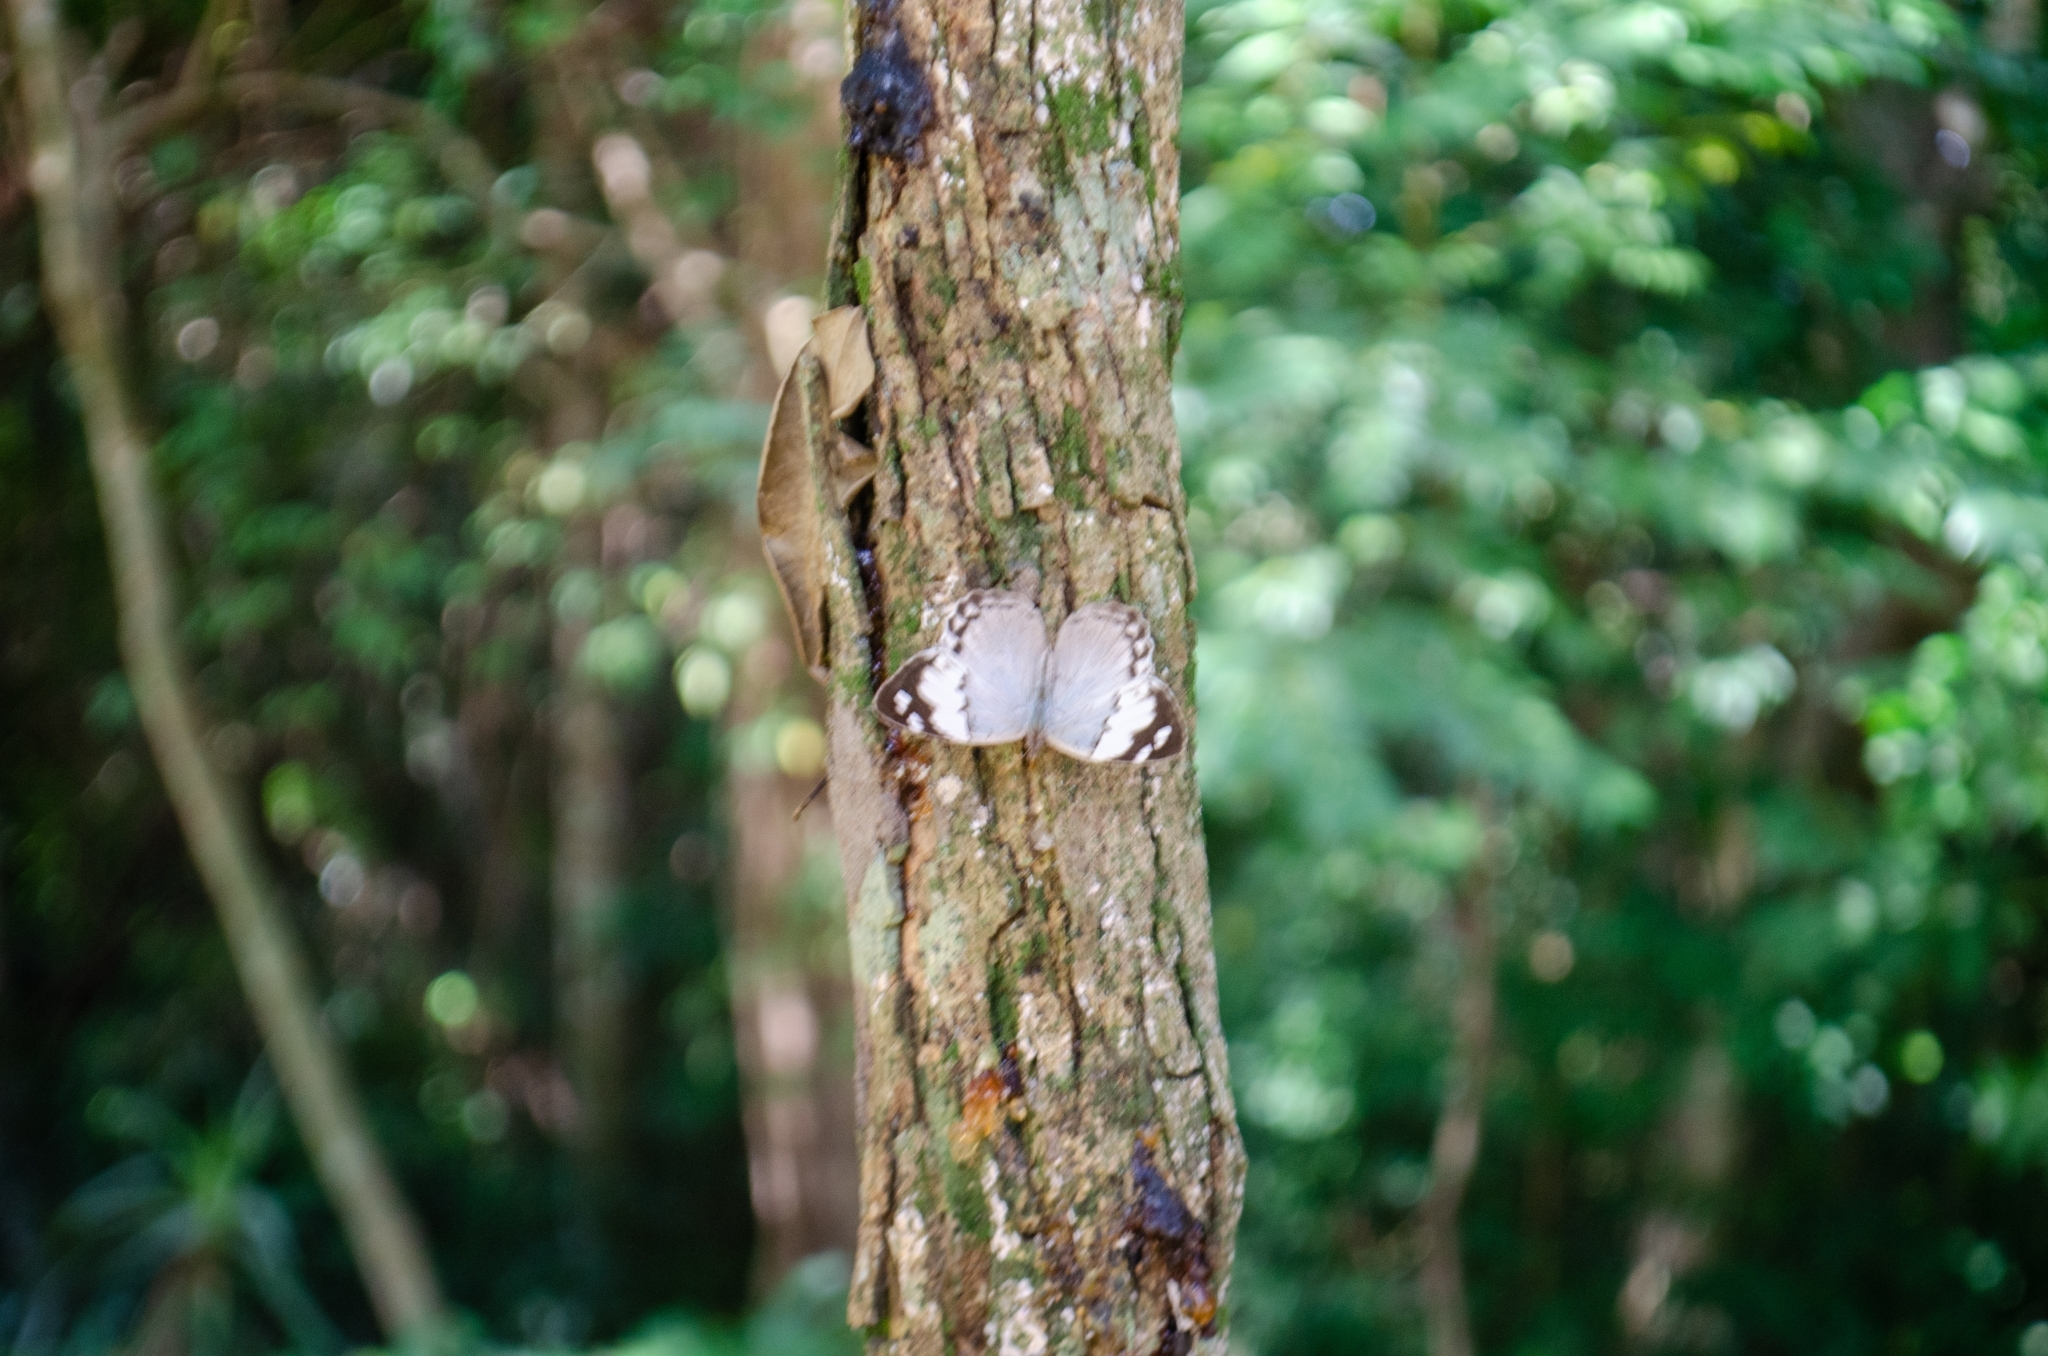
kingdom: Animalia
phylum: Arthropoda
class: Insecta
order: Lepidoptera
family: Nymphalidae
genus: Eunica
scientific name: Eunica eburnea
